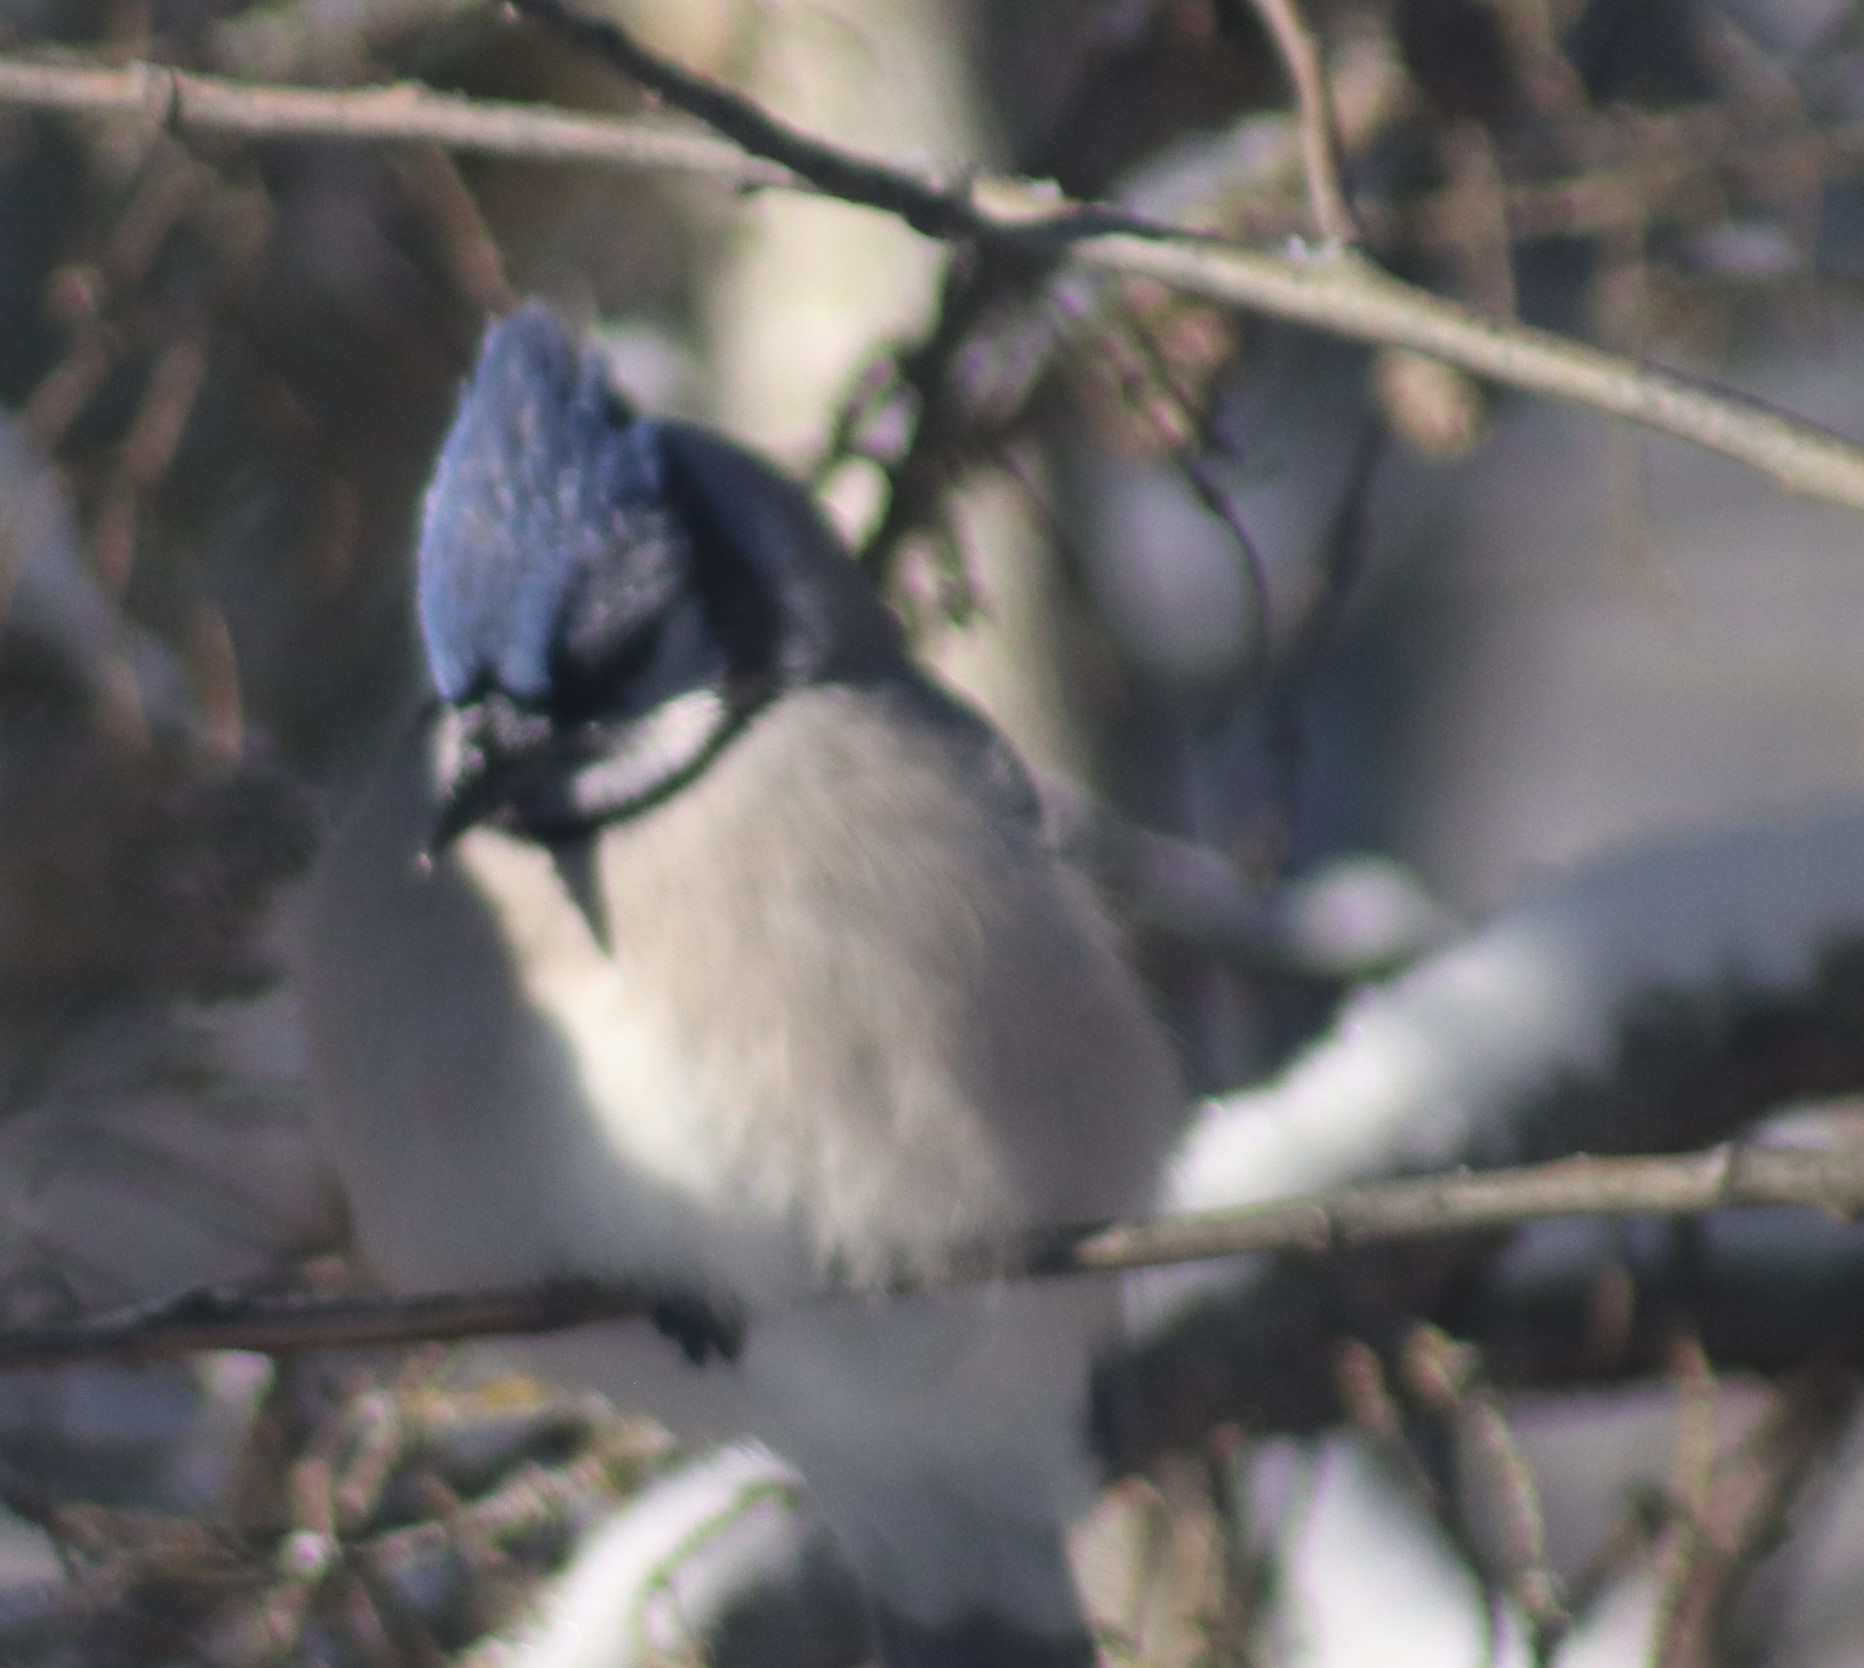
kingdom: Animalia
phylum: Chordata
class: Aves
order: Passeriformes
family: Corvidae
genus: Cyanocitta
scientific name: Cyanocitta cristata
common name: Blue jay
